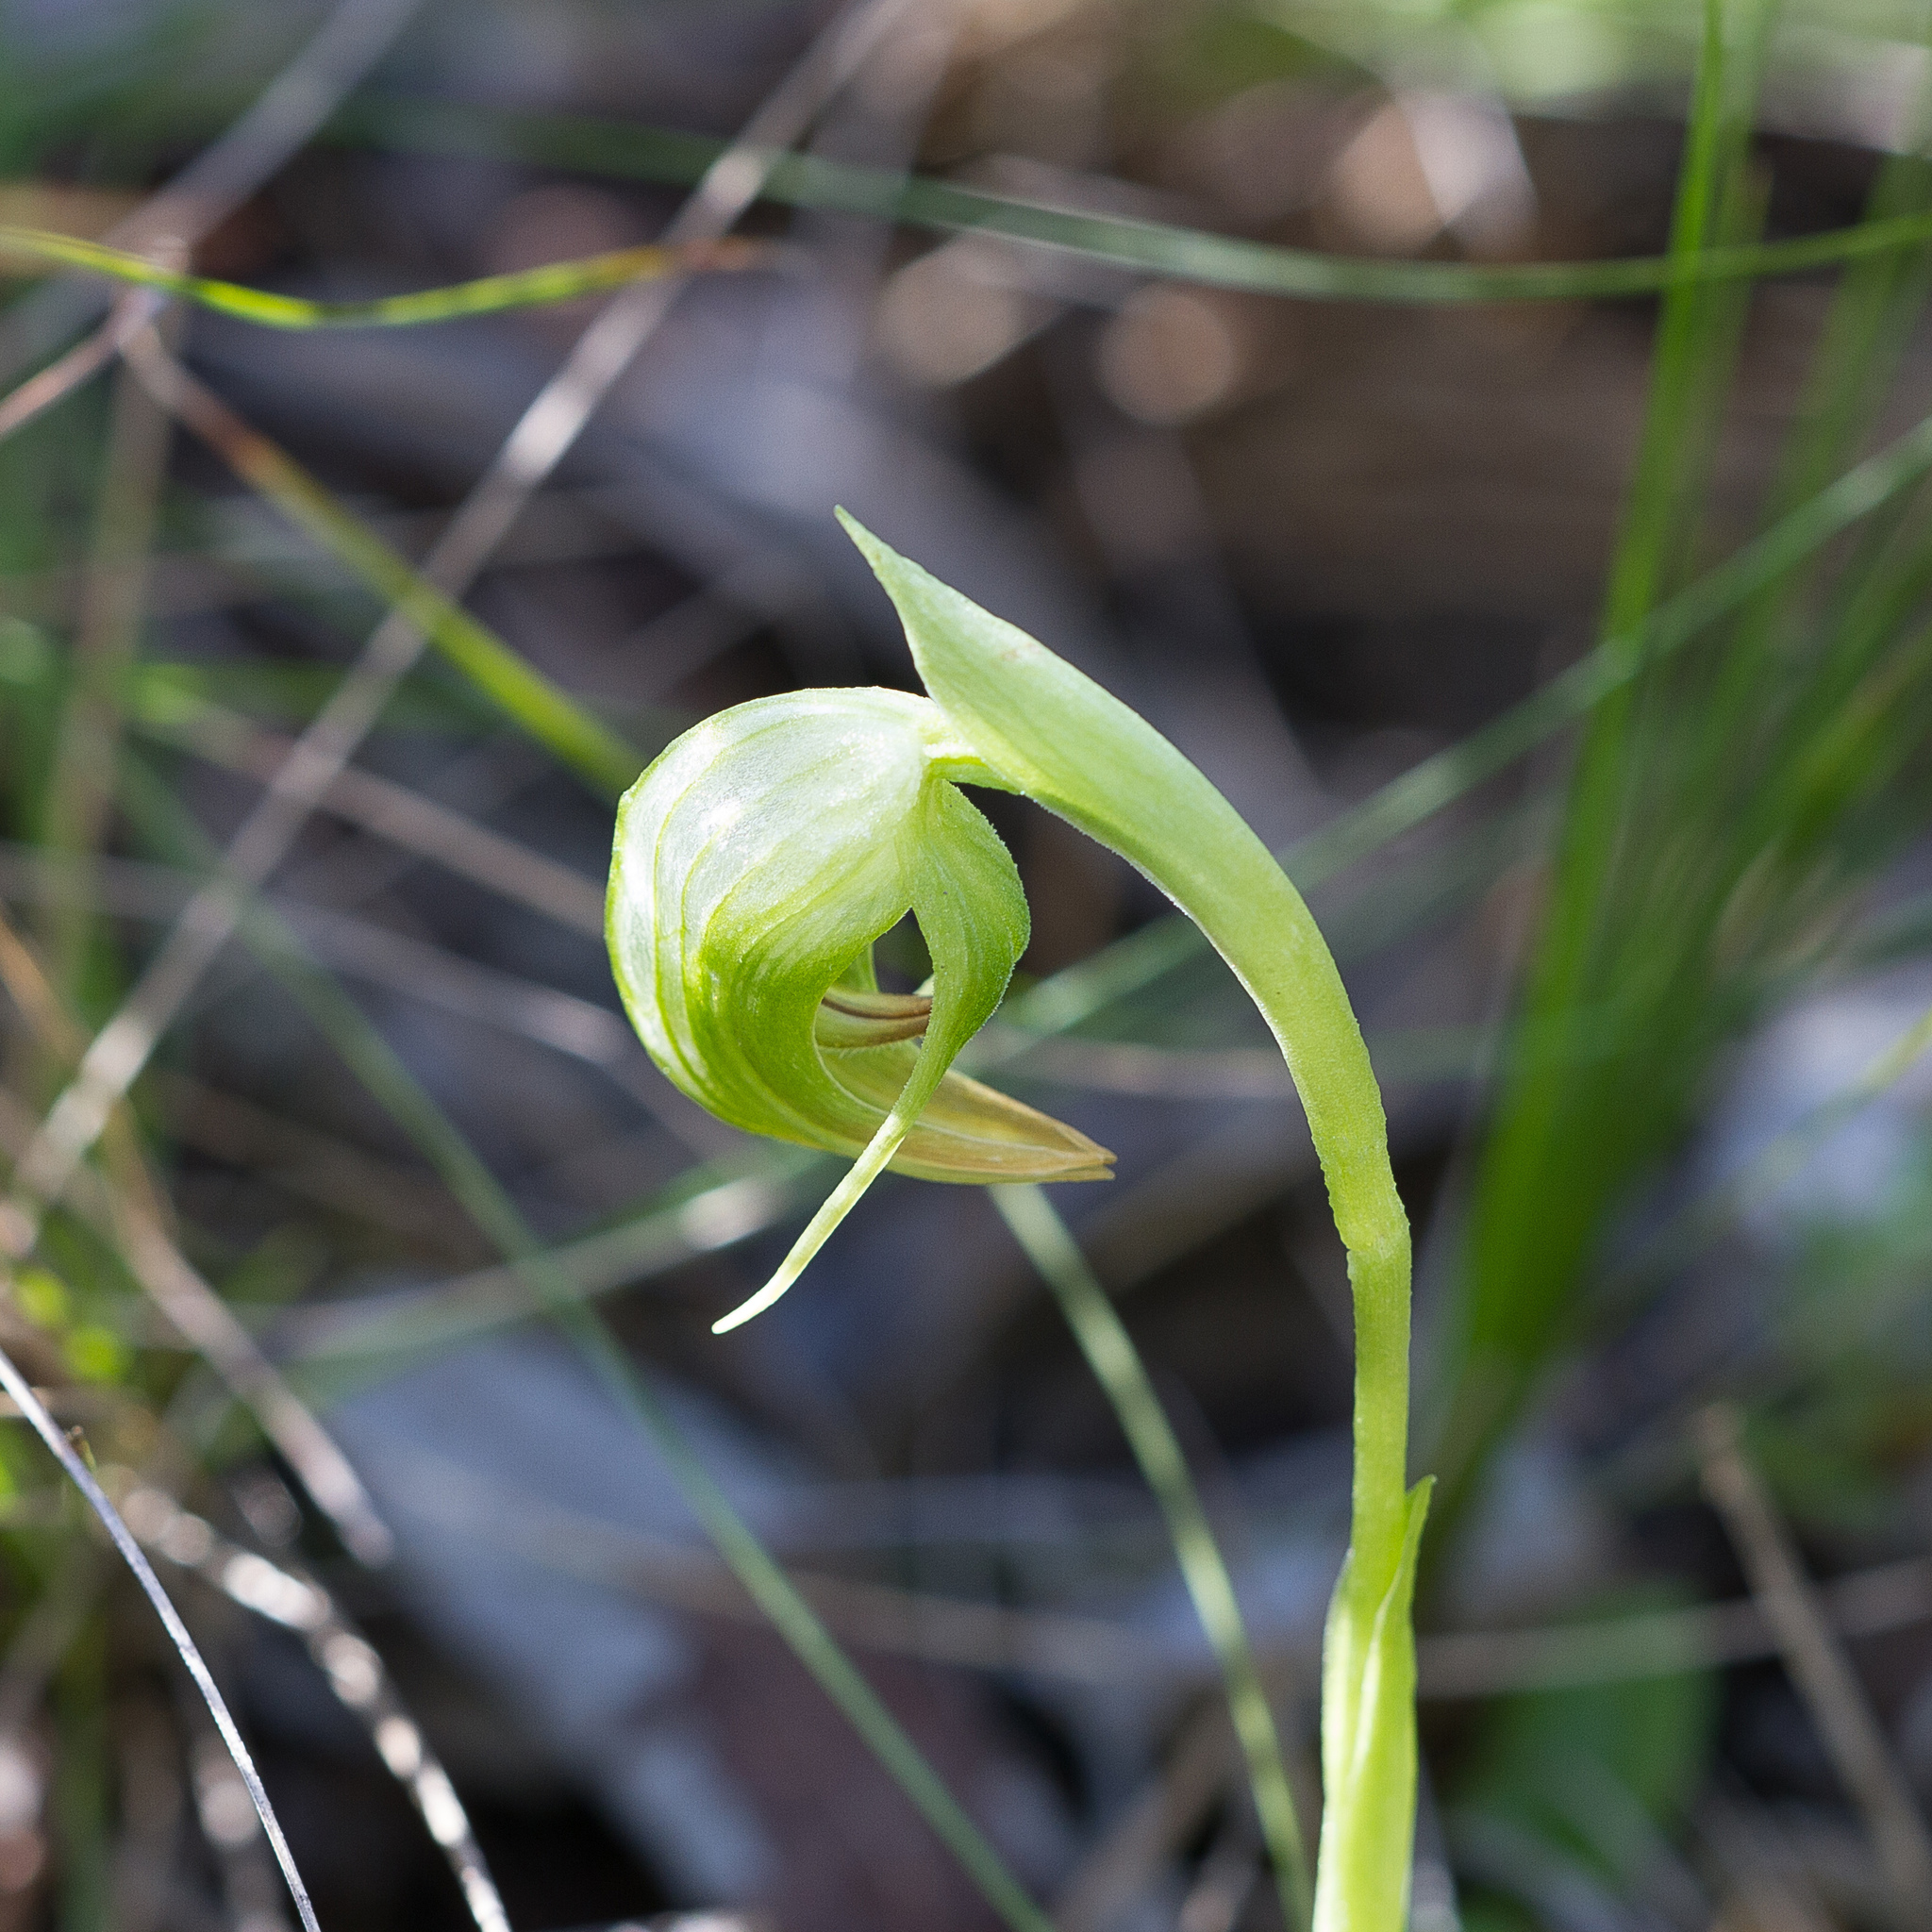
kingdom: Plantae
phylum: Tracheophyta
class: Liliopsida
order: Asparagales
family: Orchidaceae
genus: Pterostylis
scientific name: Pterostylis nutans
